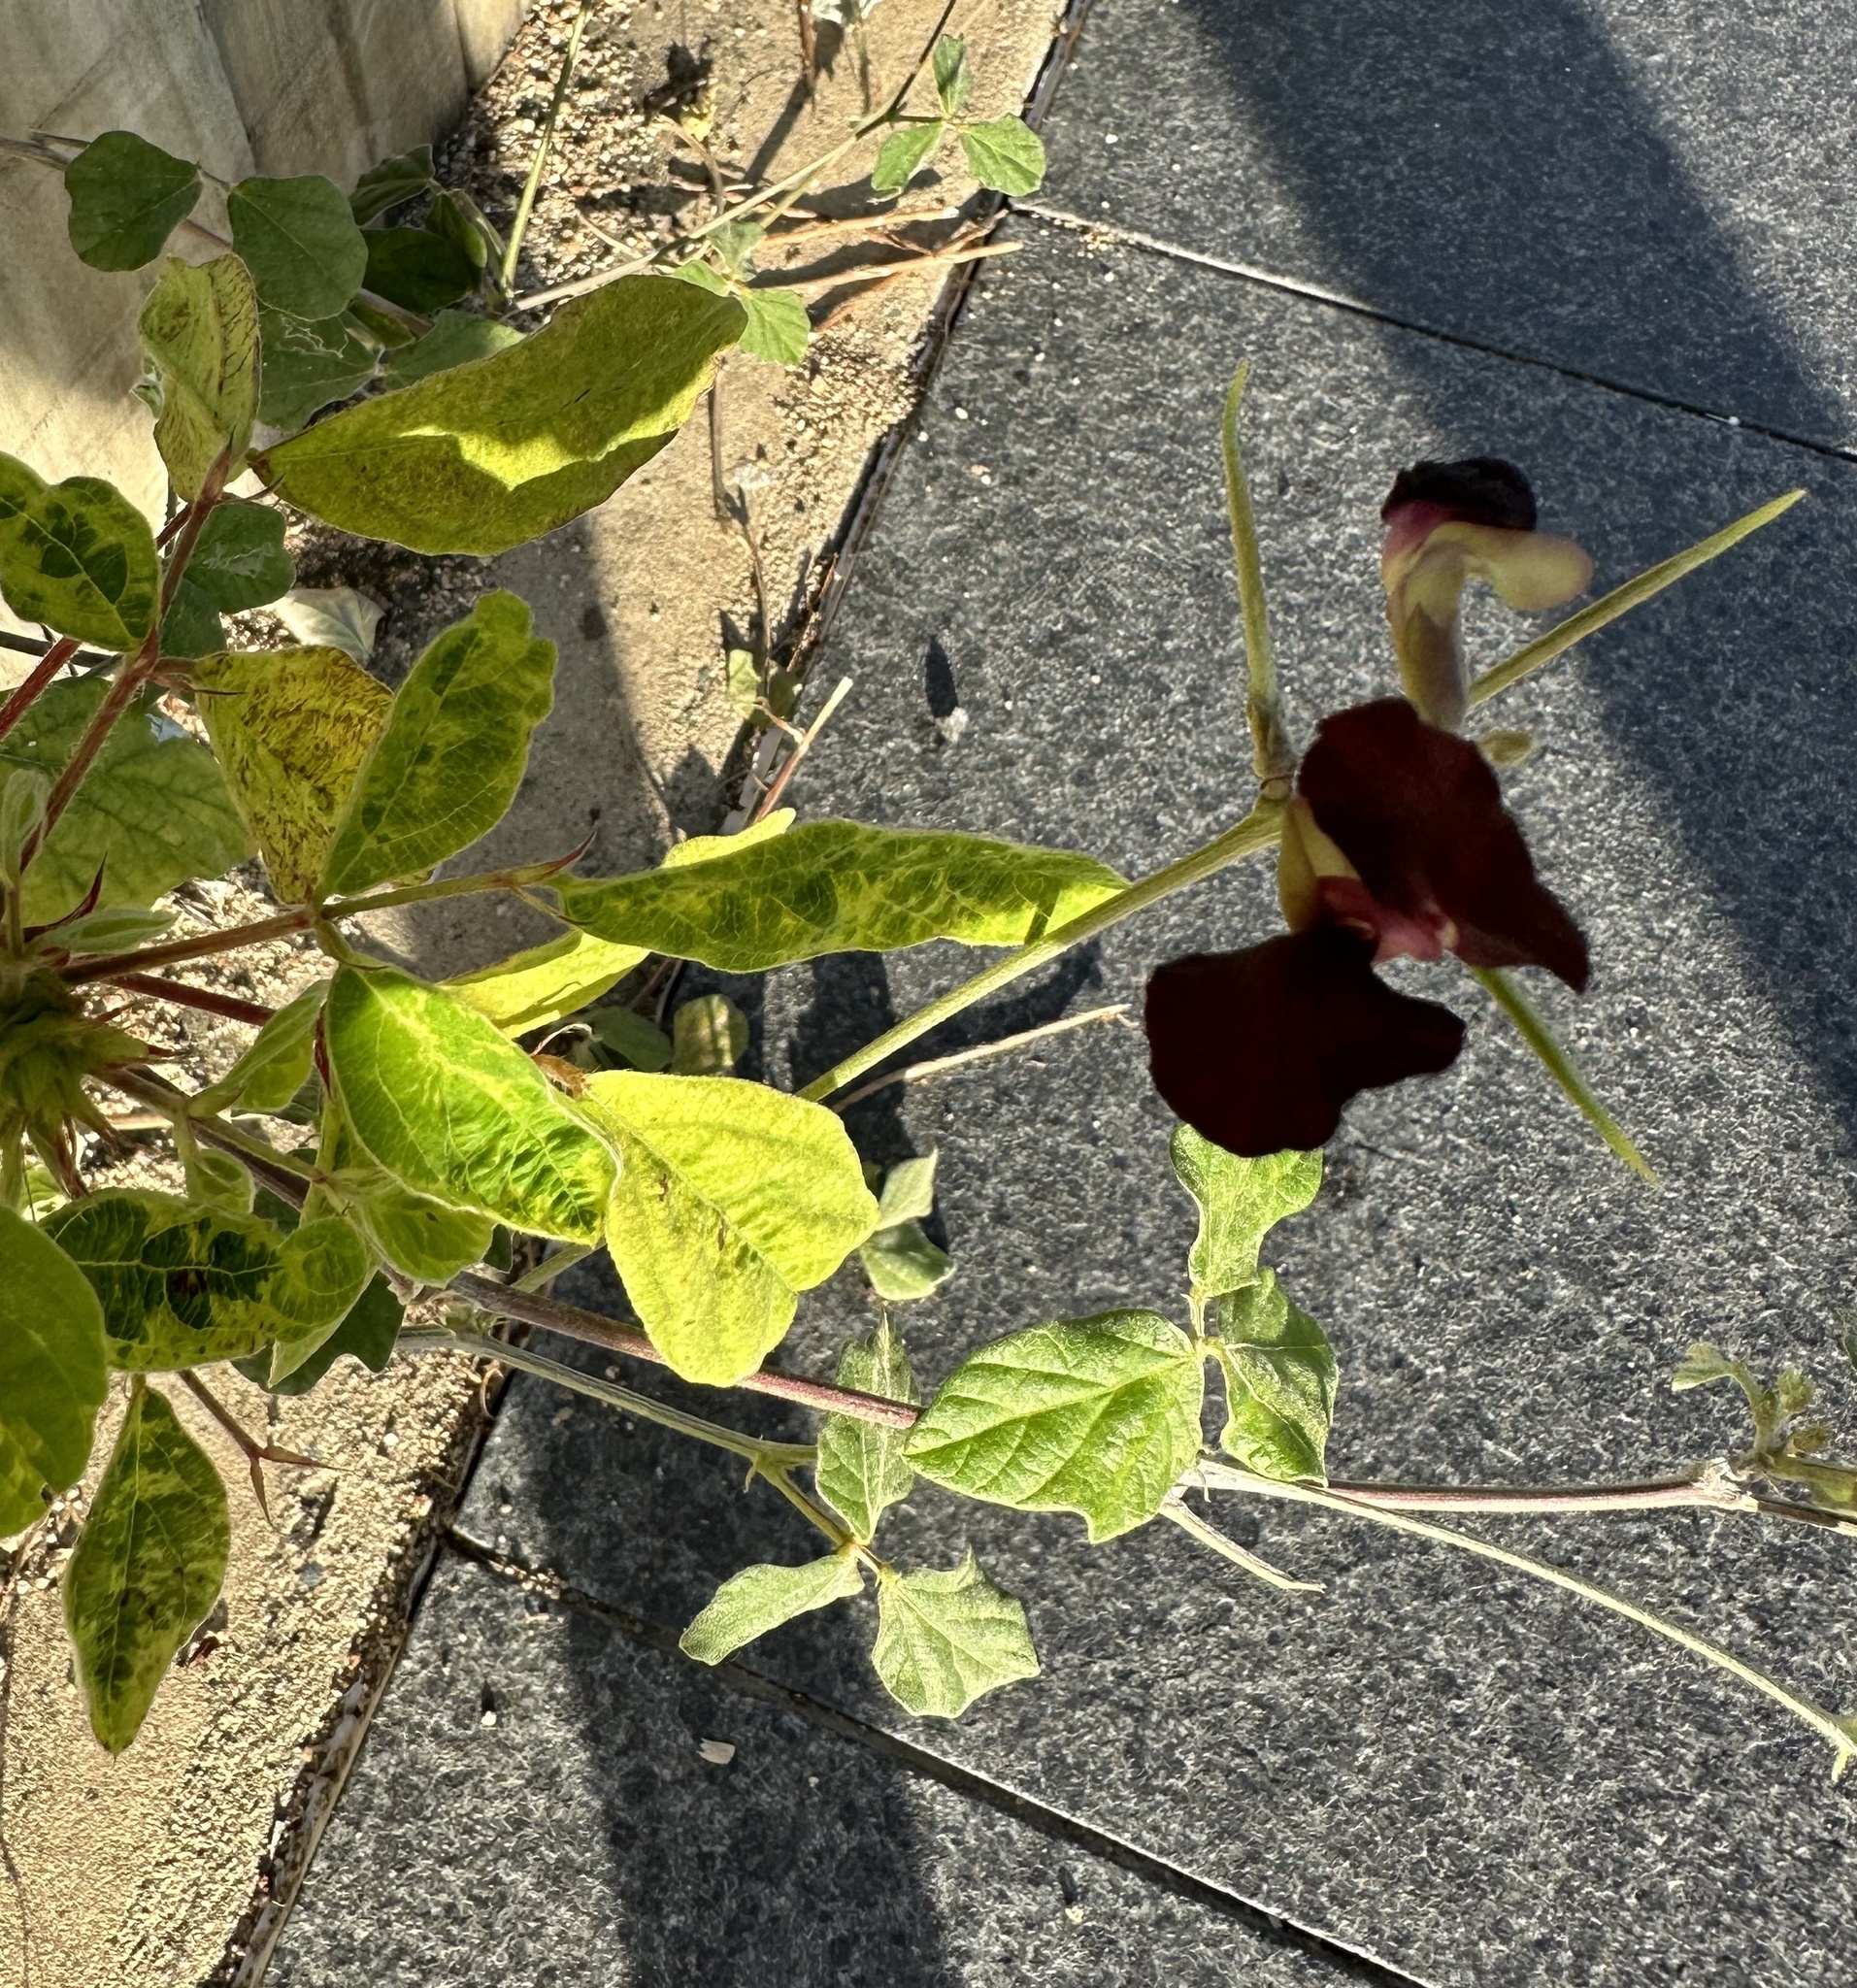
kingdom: Plantae
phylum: Tracheophyta
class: Magnoliopsida
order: Fabales
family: Fabaceae
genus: Macroptilium
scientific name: Macroptilium atropurpureum
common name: Purple bushbean
